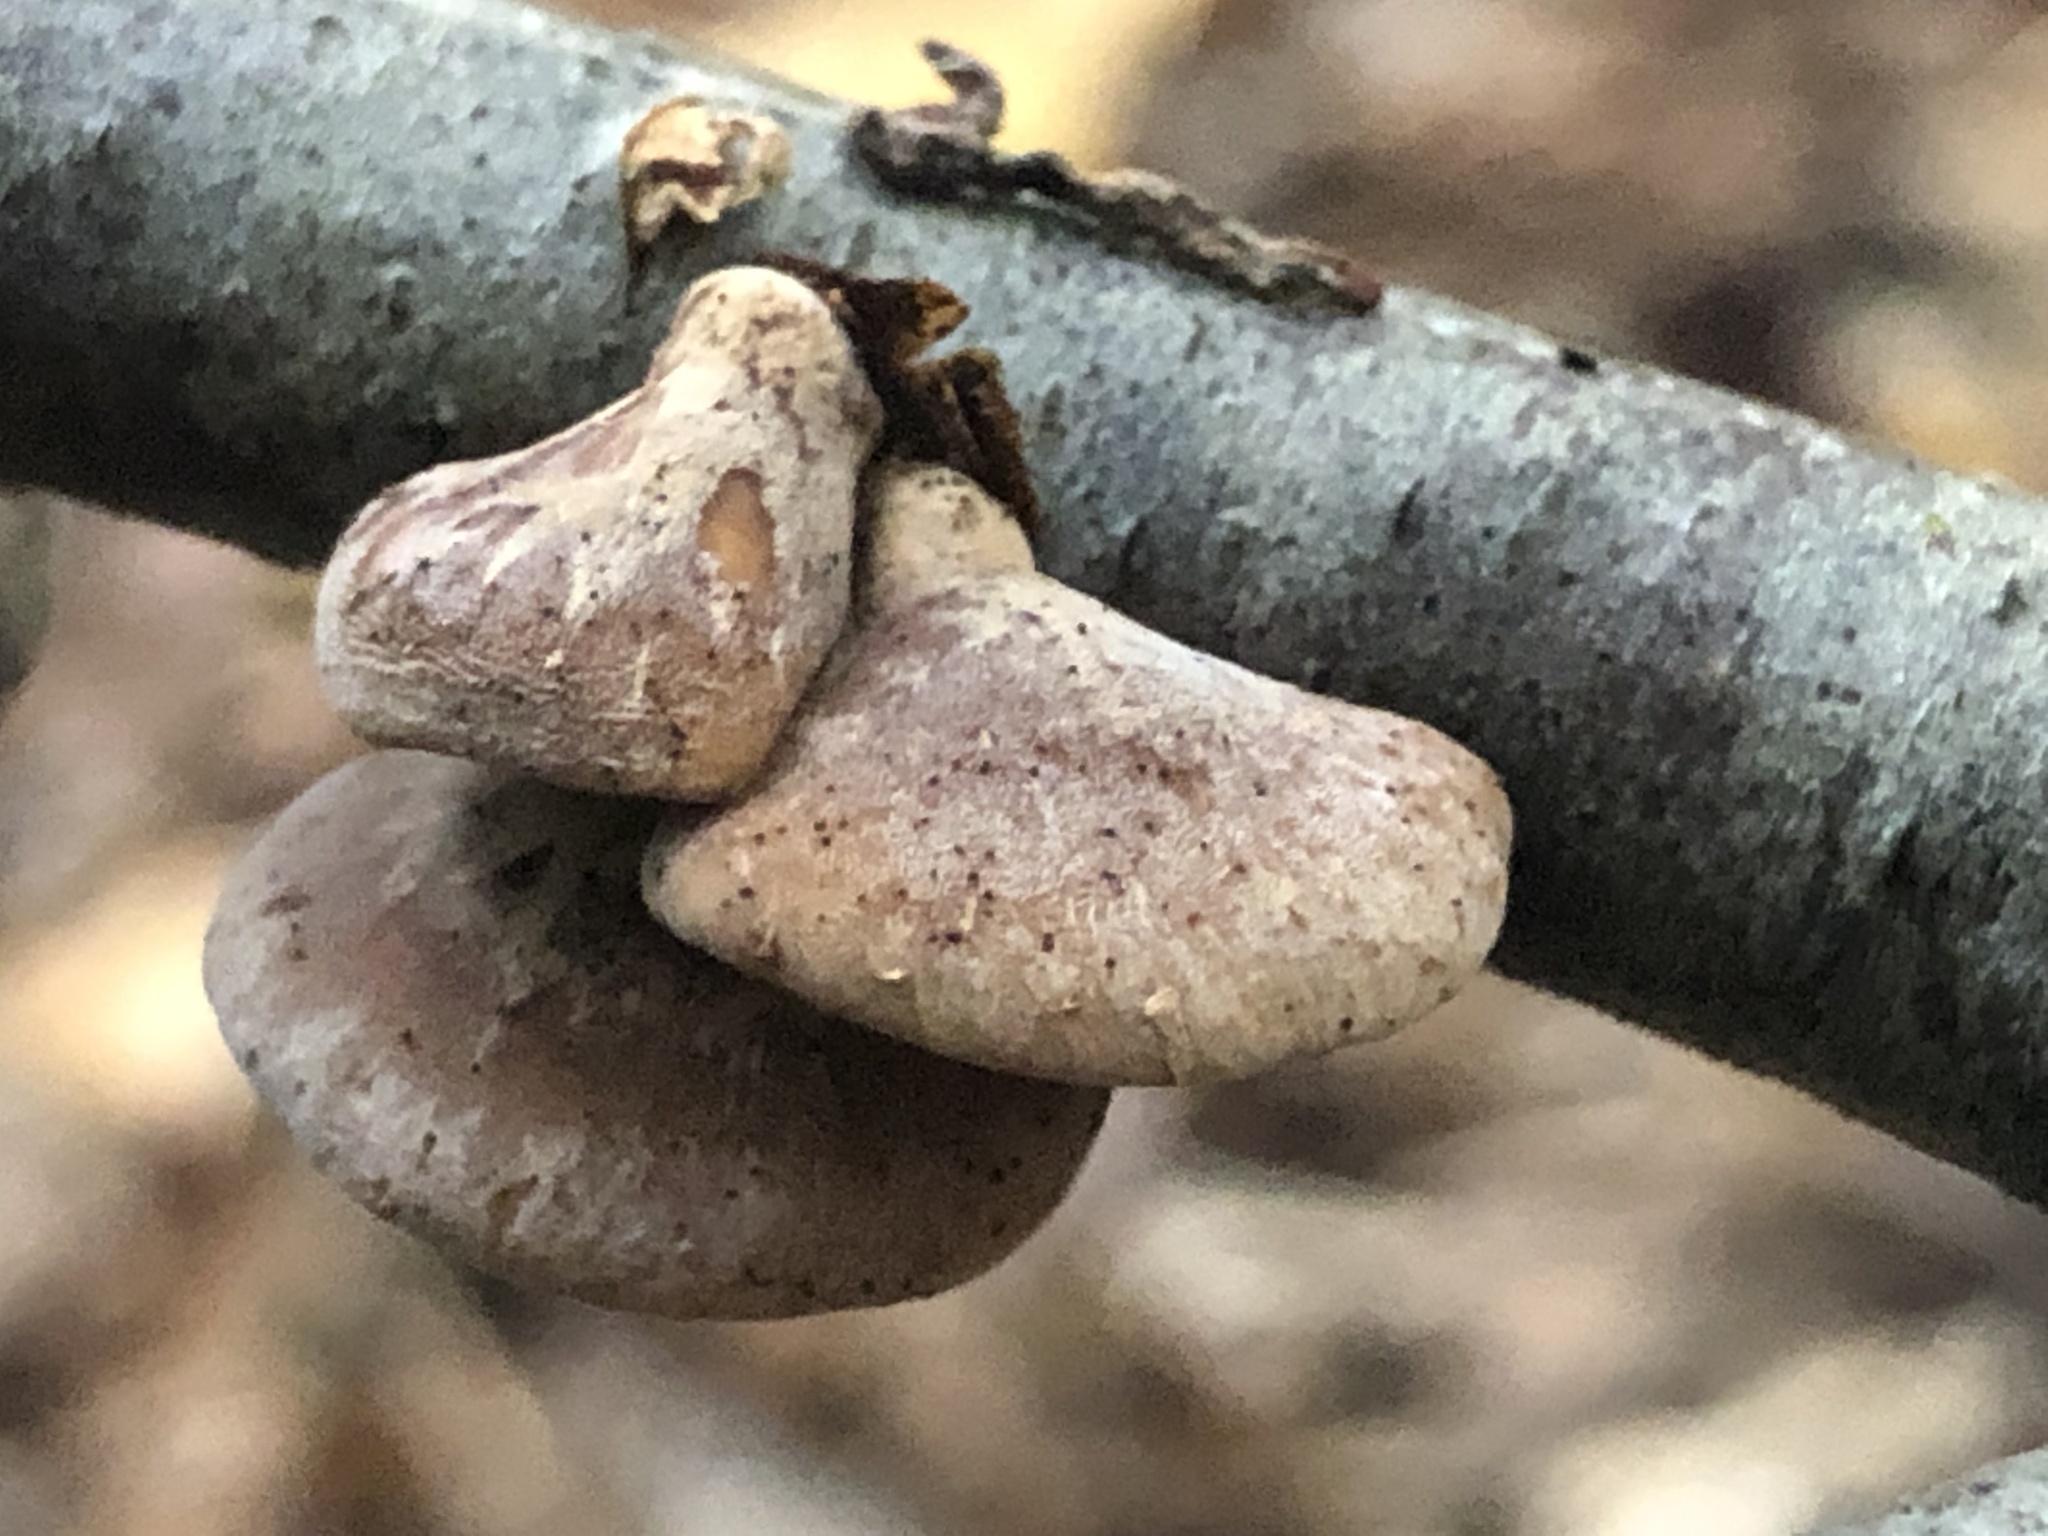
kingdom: Fungi
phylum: Basidiomycota
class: Agaricomycetes
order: Agaricales
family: Mycenaceae
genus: Tectella
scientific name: Tectella patellaris
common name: Veiled panus
